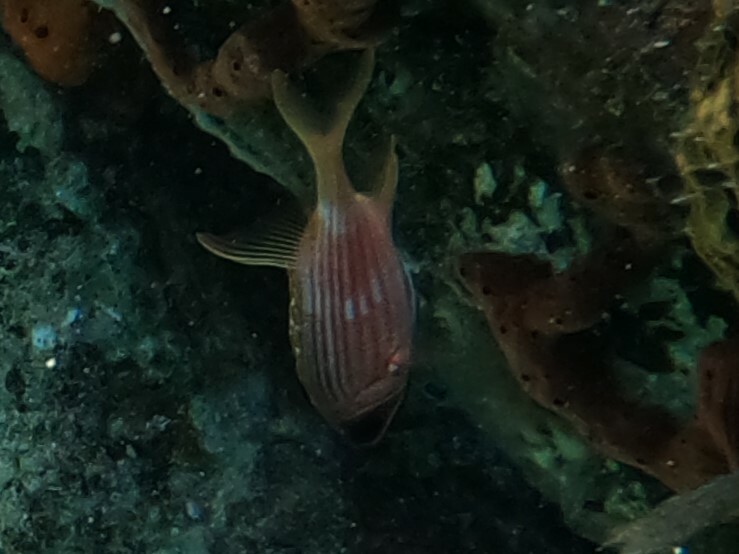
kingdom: Animalia
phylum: Chordata
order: Beryciformes
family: Holocentridae
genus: Holocentrus
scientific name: Holocentrus rufus
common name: Longspine squirrelfish
